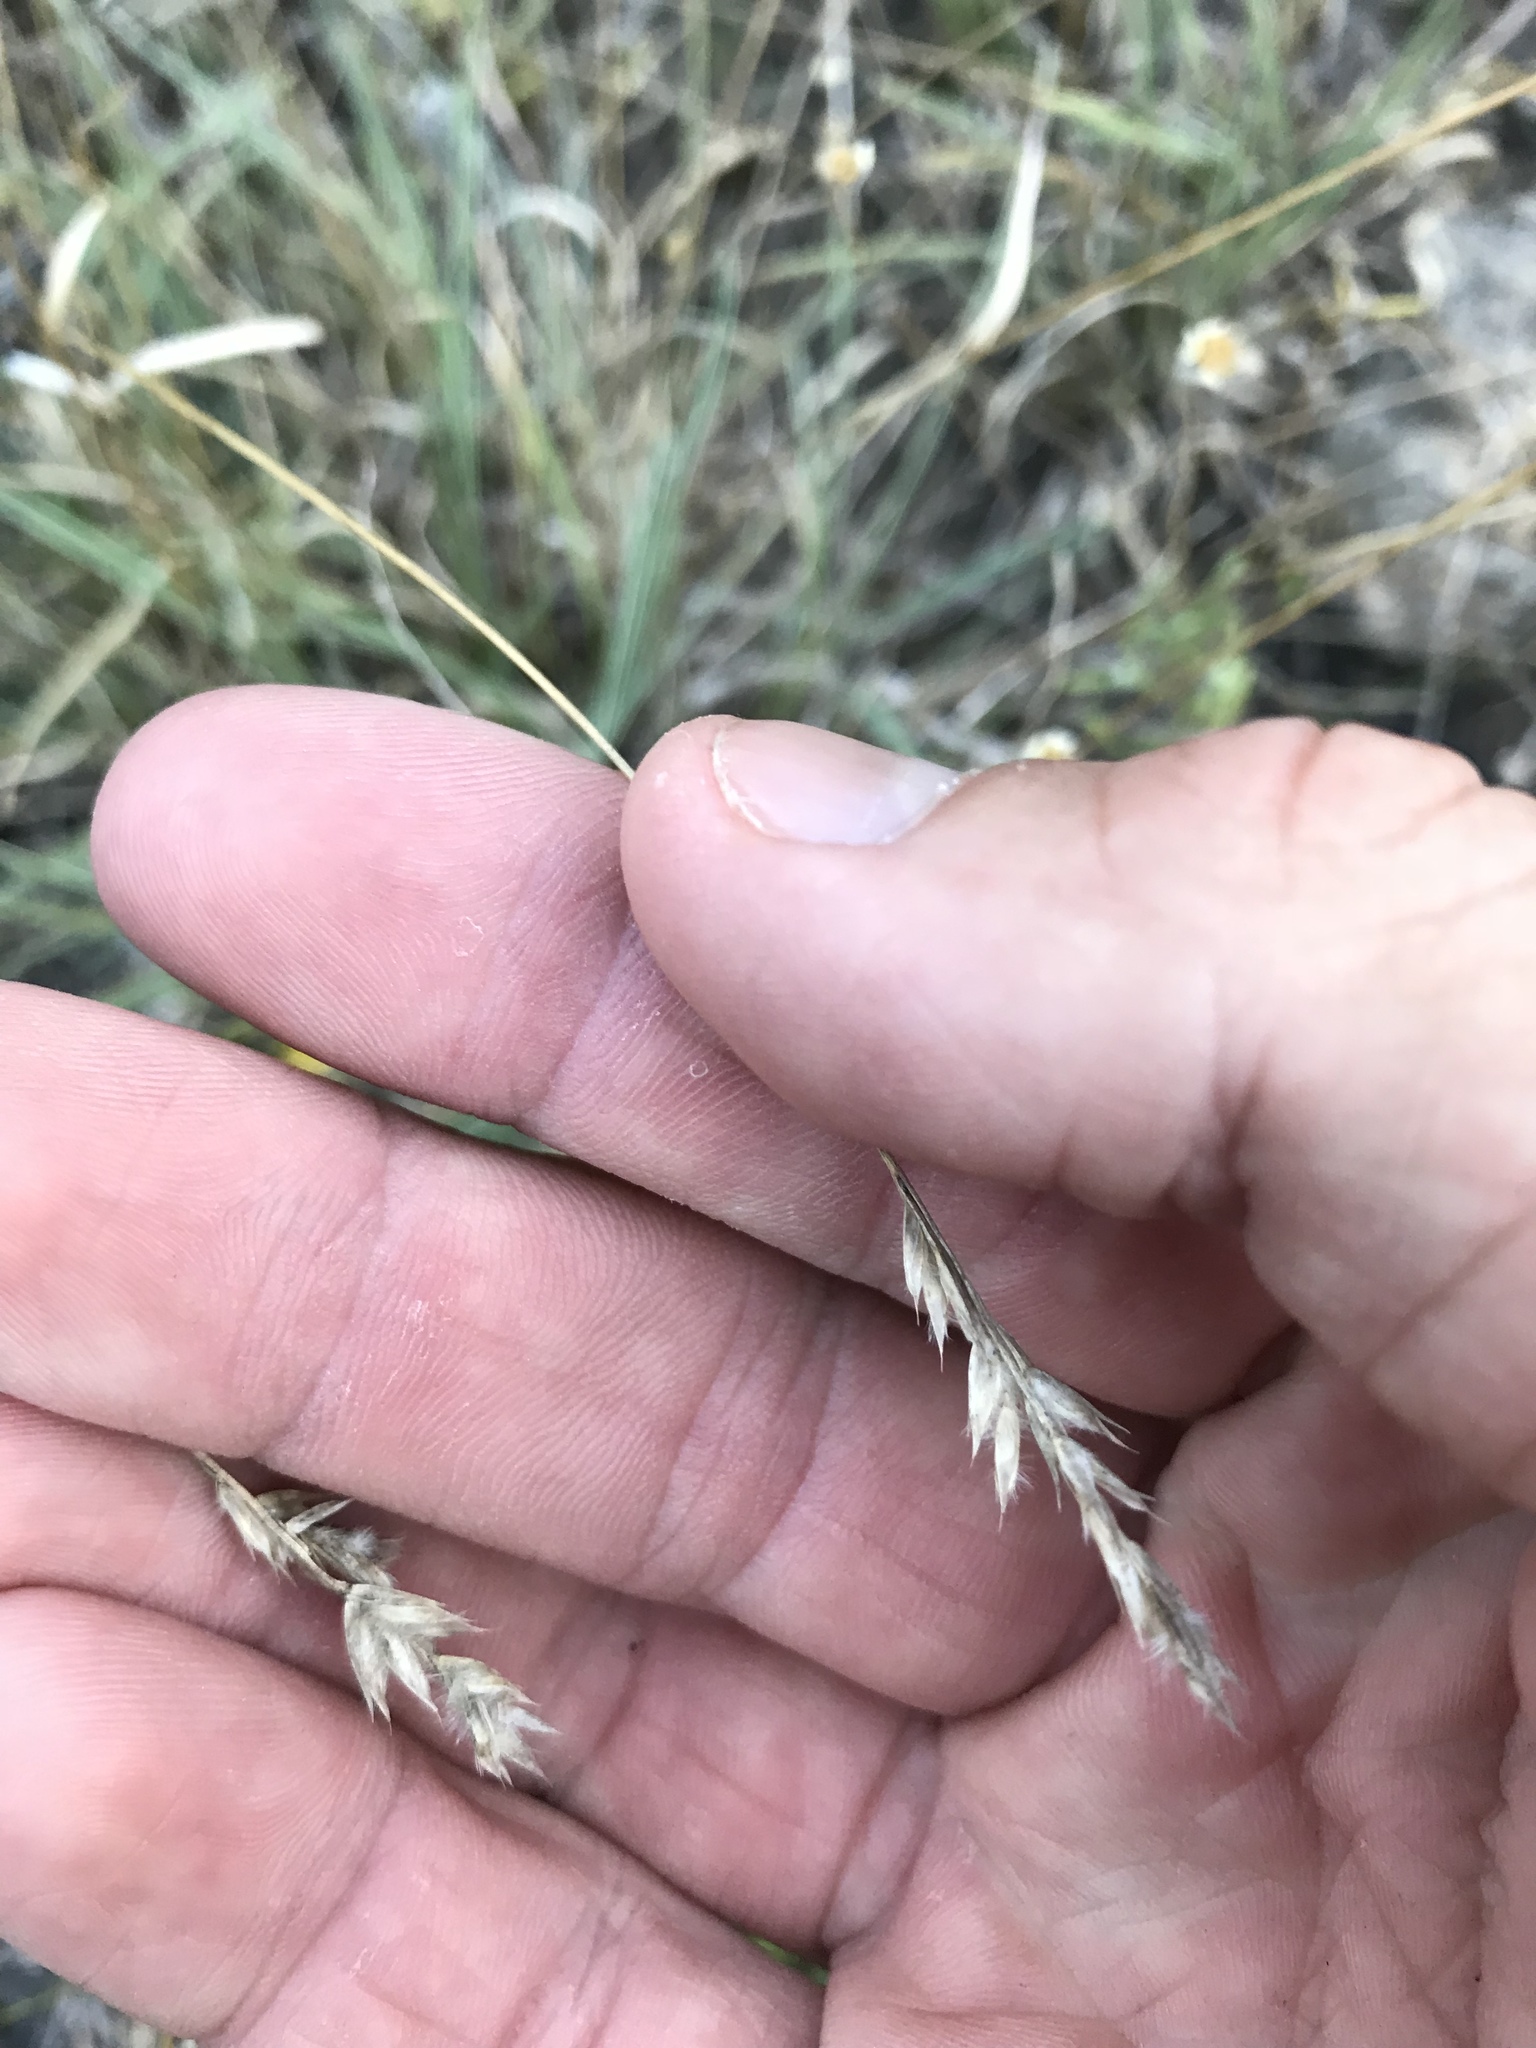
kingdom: Plantae
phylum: Tracheophyta
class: Liliopsida
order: Poales
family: Poaceae
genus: Erioneuron
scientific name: Erioneuron pilosum
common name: Hairy woolly grass
